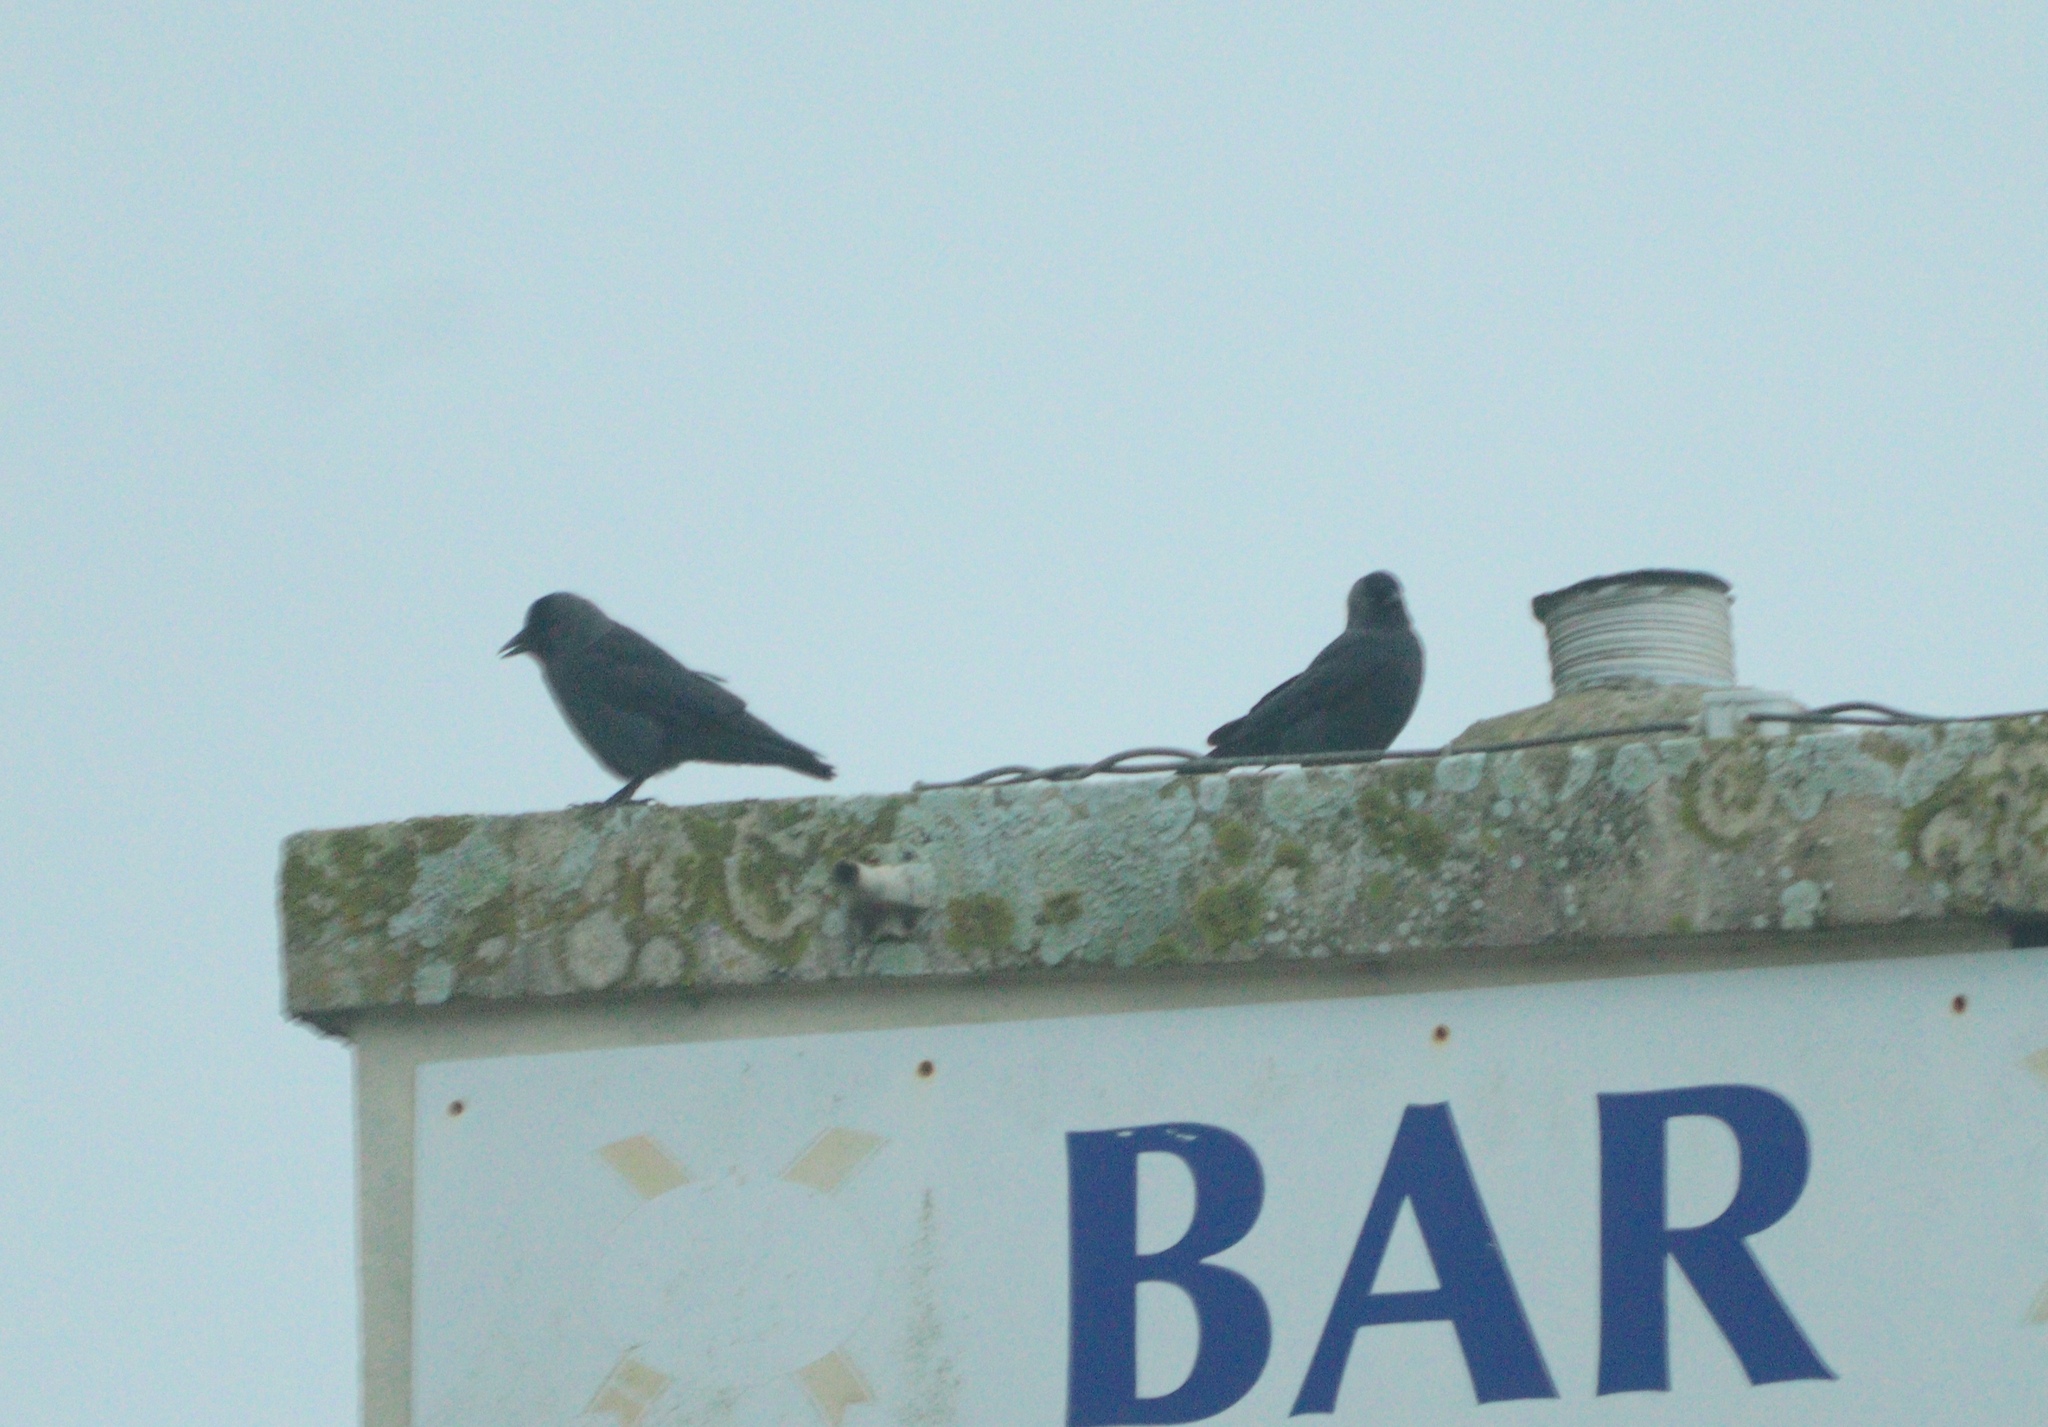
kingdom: Animalia
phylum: Chordata
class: Aves
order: Passeriformes
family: Corvidae
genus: Coloeus
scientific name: Coloeus monedula
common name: Western jackdaw
